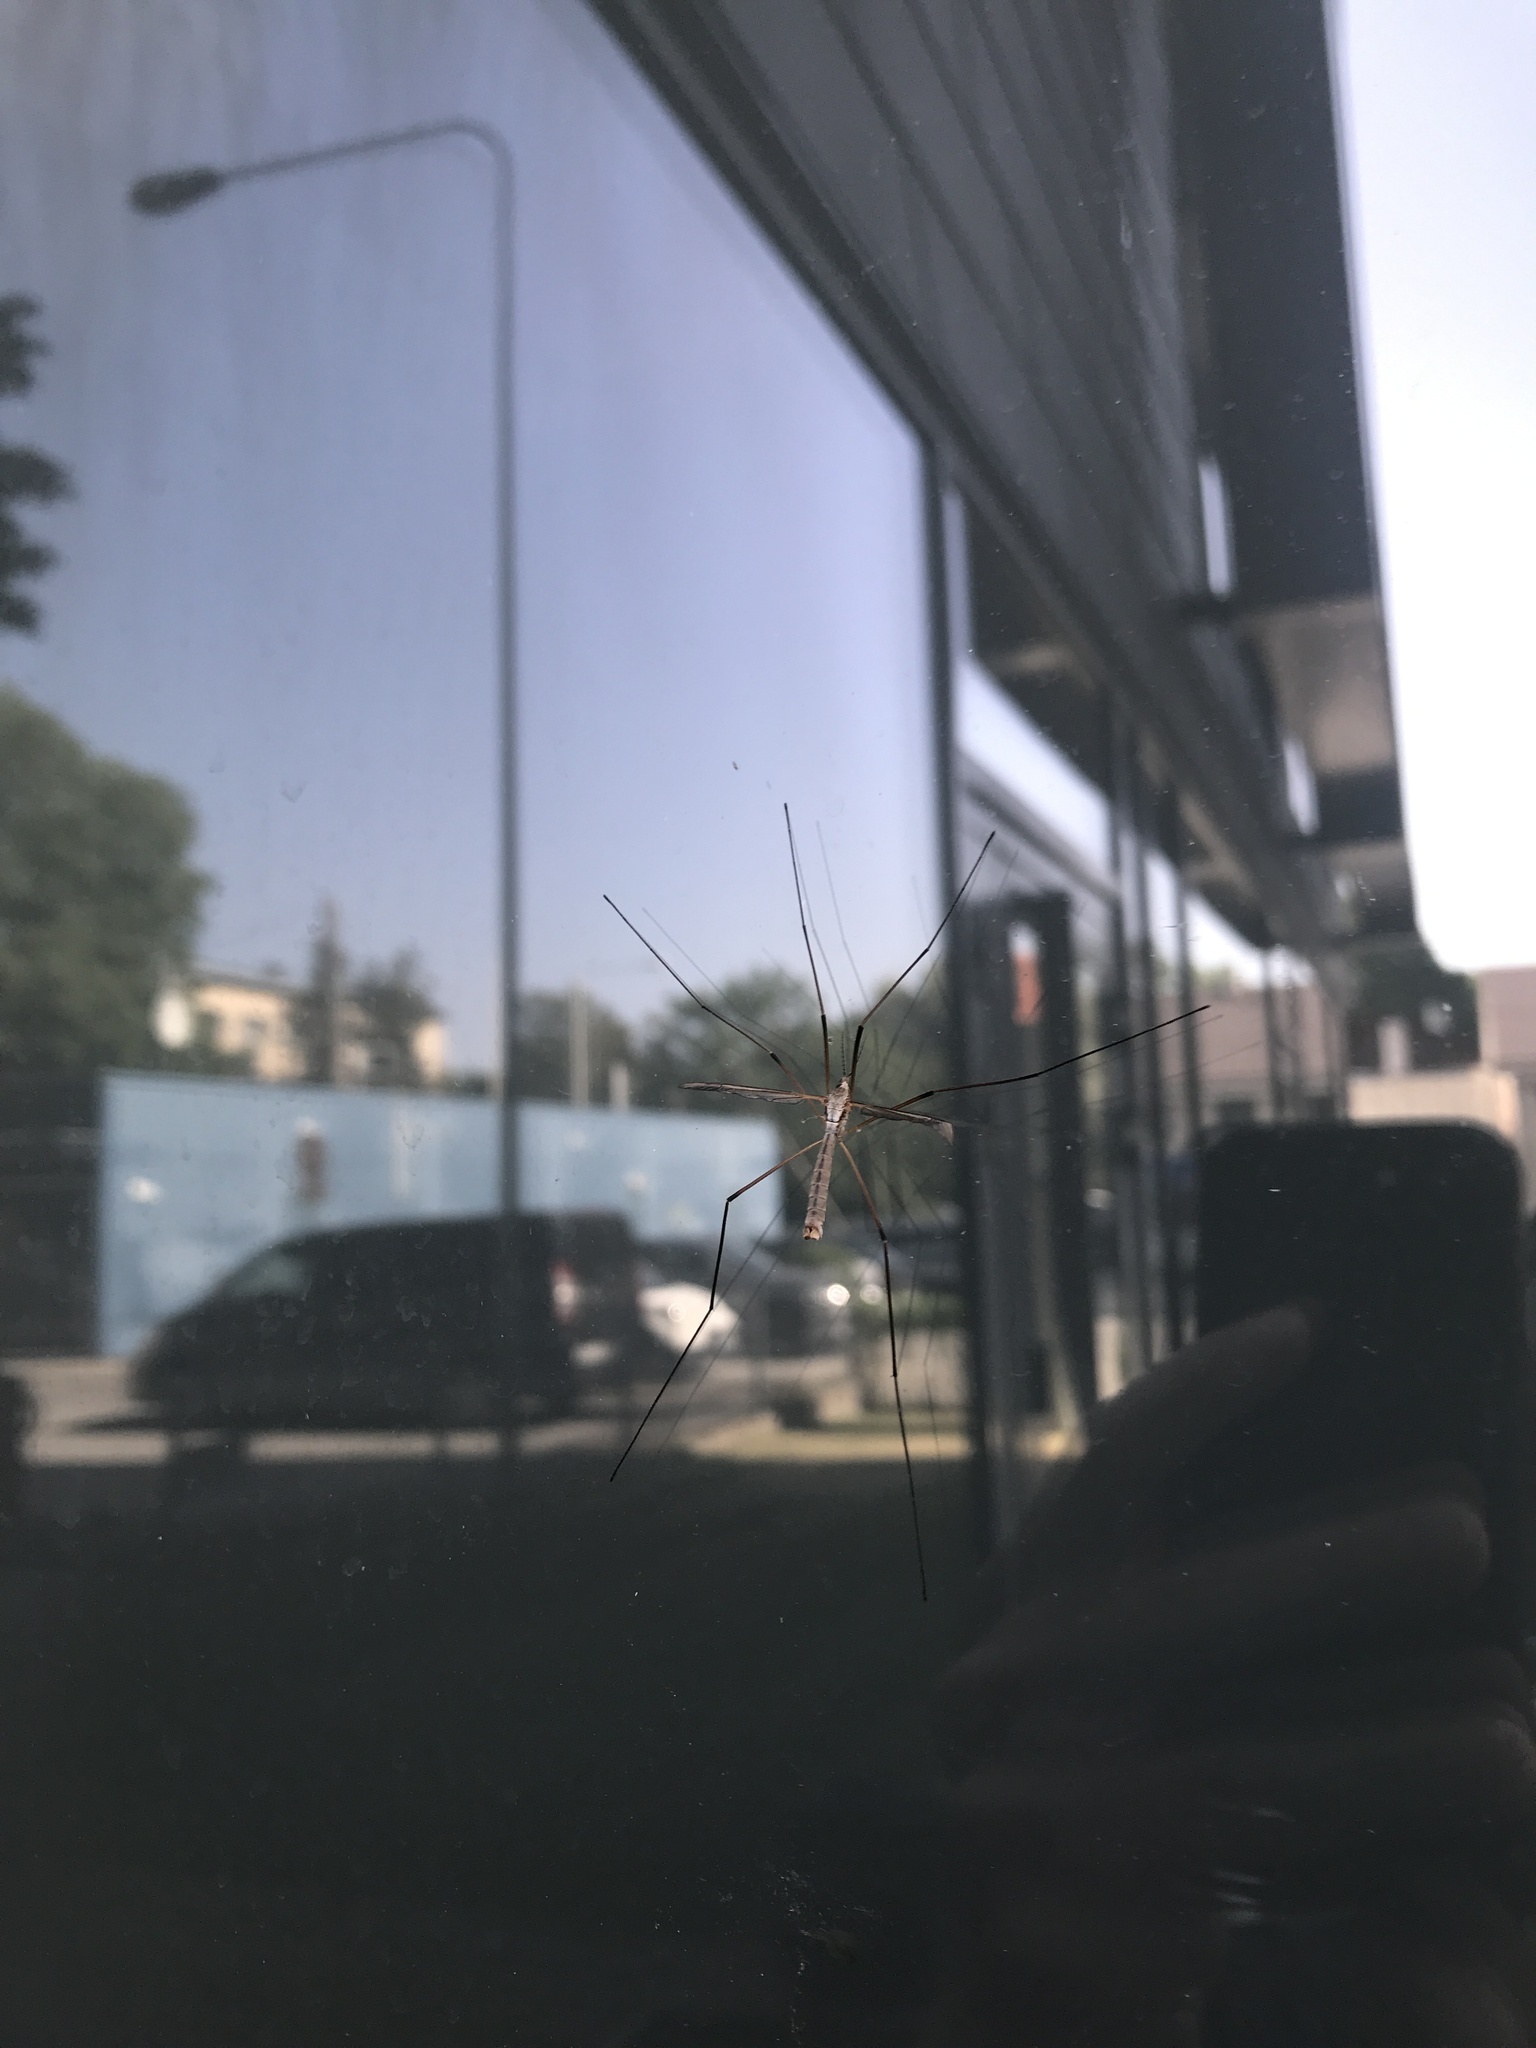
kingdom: Animalia
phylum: Arthropoda
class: Insecta
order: Diptera
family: Tipulidae
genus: Tipula
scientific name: Tipula paludosa
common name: European cranefly
